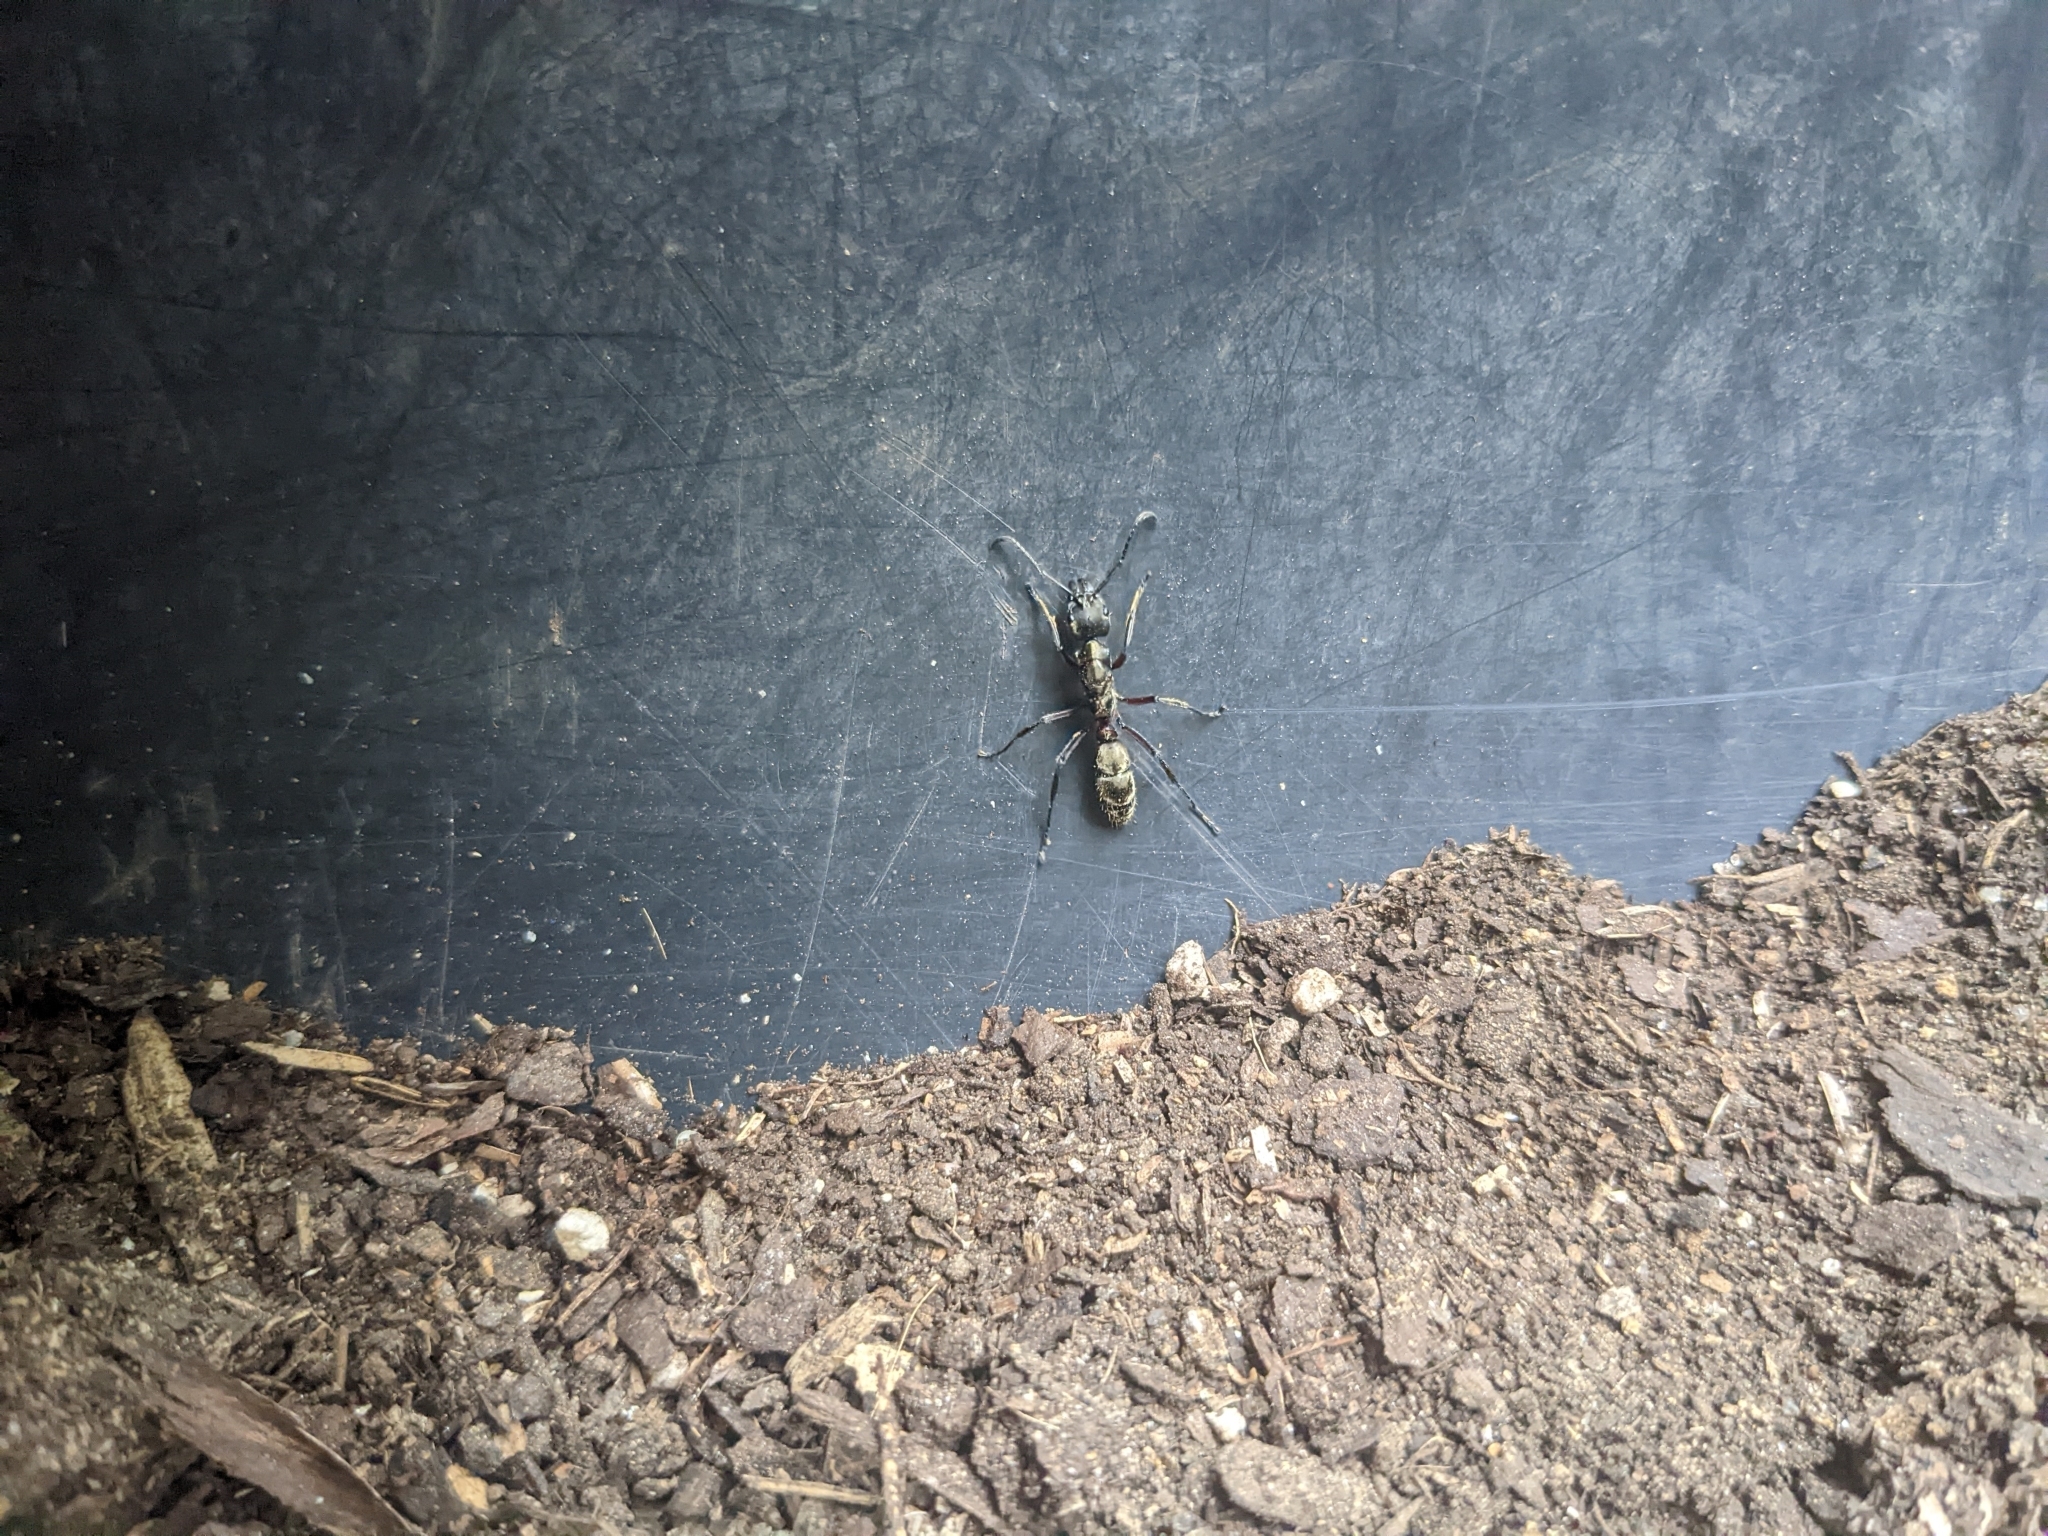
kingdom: Animalia
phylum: Arthropoda
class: Insecta
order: Hymenoptera
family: Formicidae
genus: Pachycondyla
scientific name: Pachycondyla villosa
